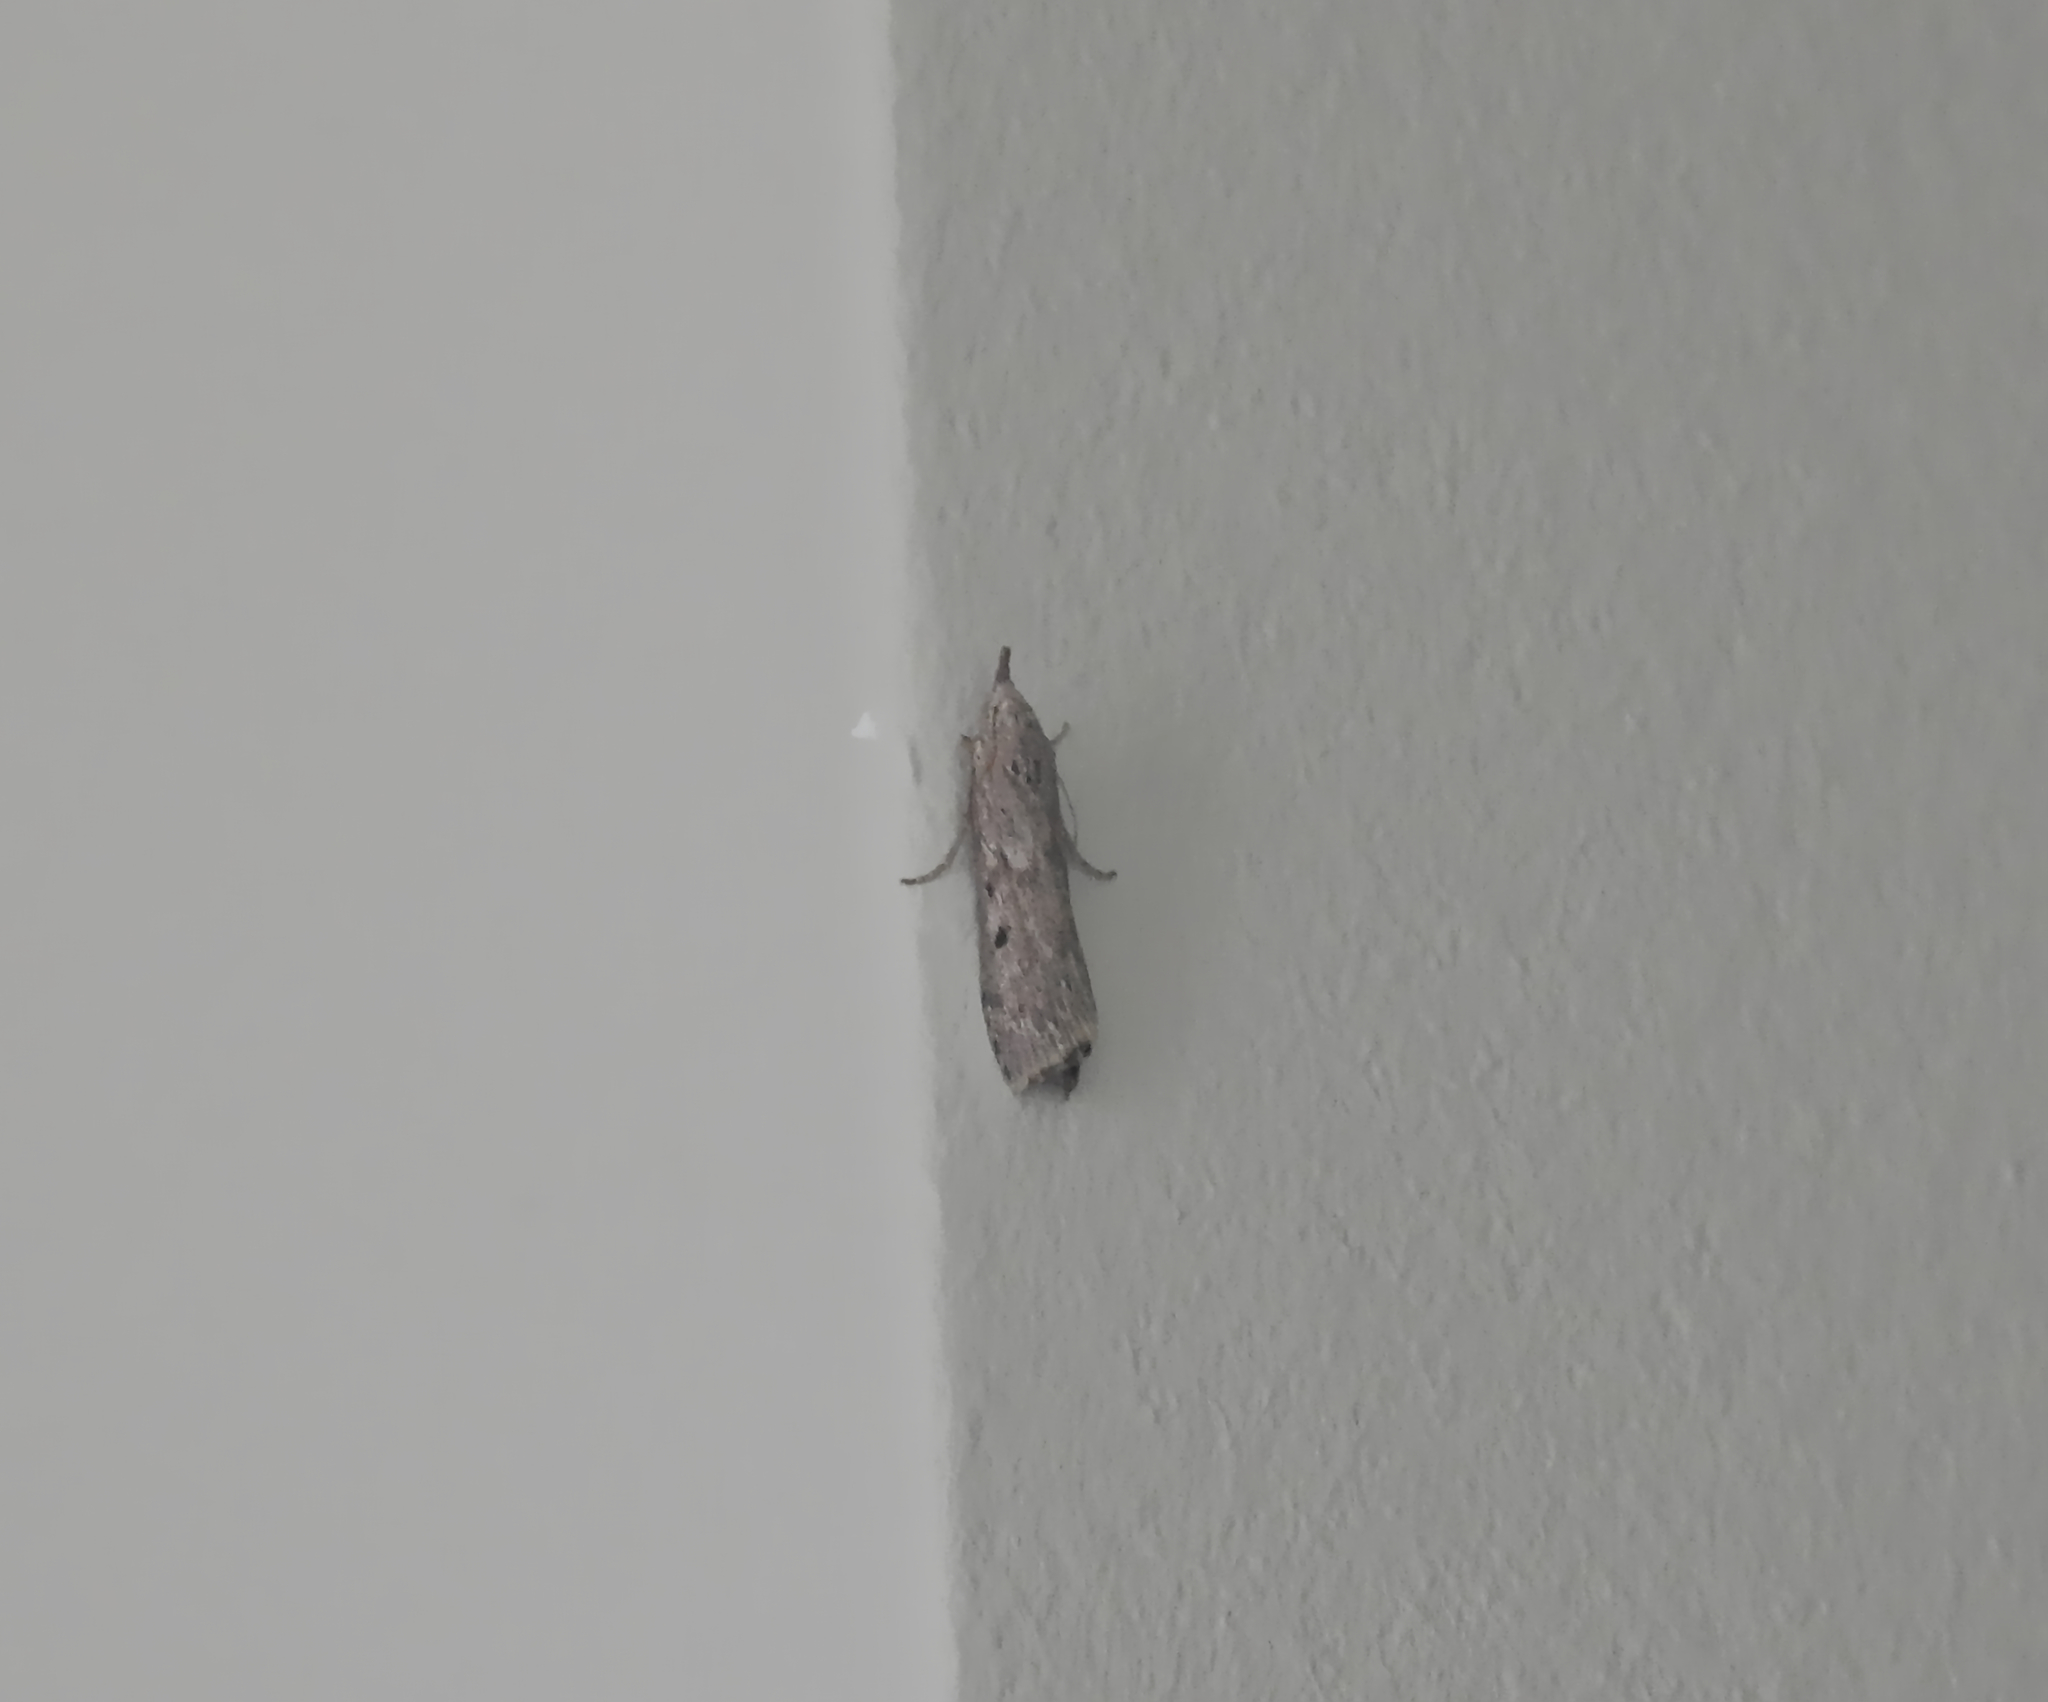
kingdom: Animalia
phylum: Arthropoda
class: Insecta
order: Lepidoptera
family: Pyralidae
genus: Aphomia
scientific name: Aphomia sociella
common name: Bee moth
